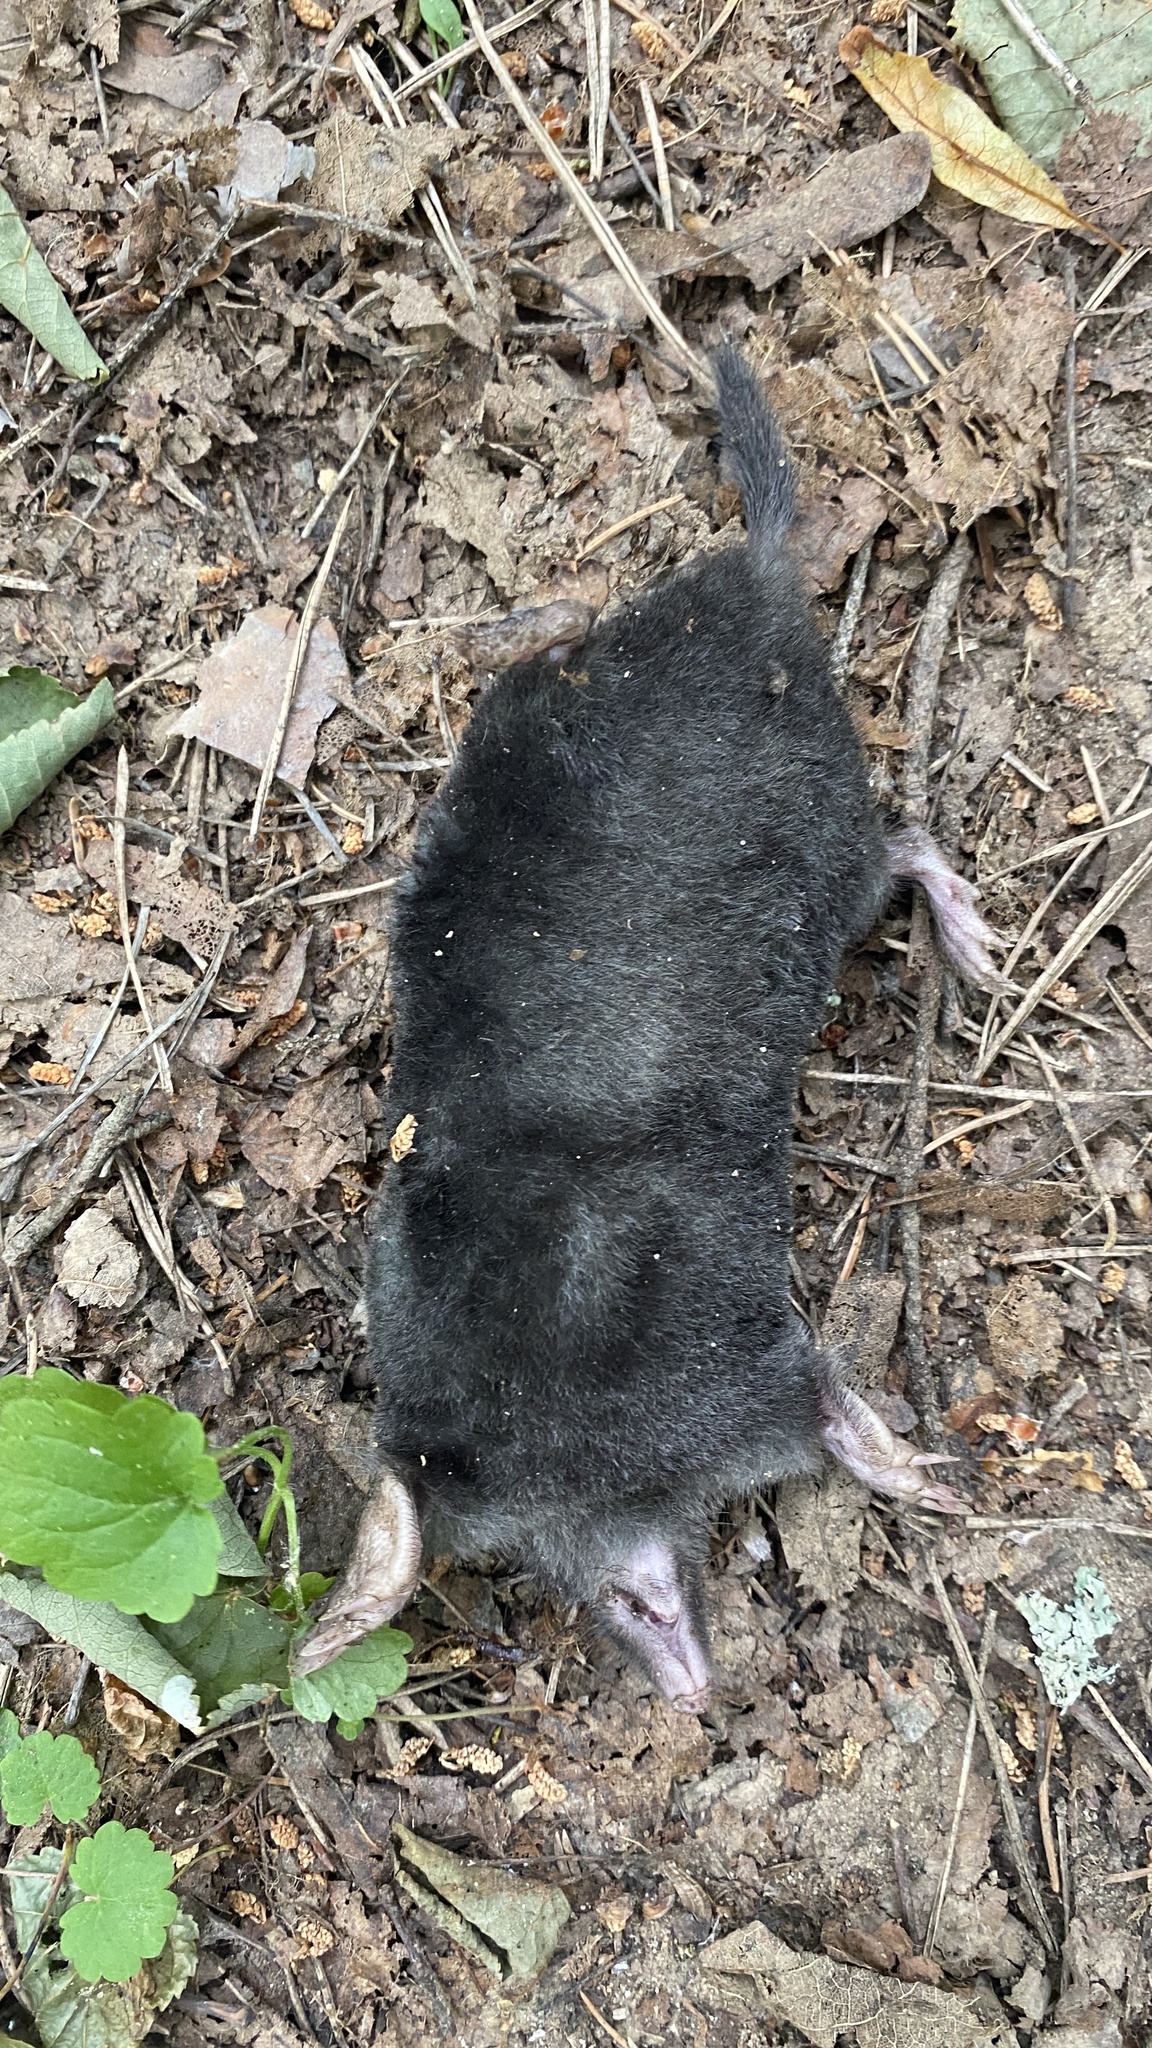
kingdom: Animalia
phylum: Chordata
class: Mammalia
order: Soricomorpha
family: Talpidae
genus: Talpa
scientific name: Talpa europaea
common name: European mole
